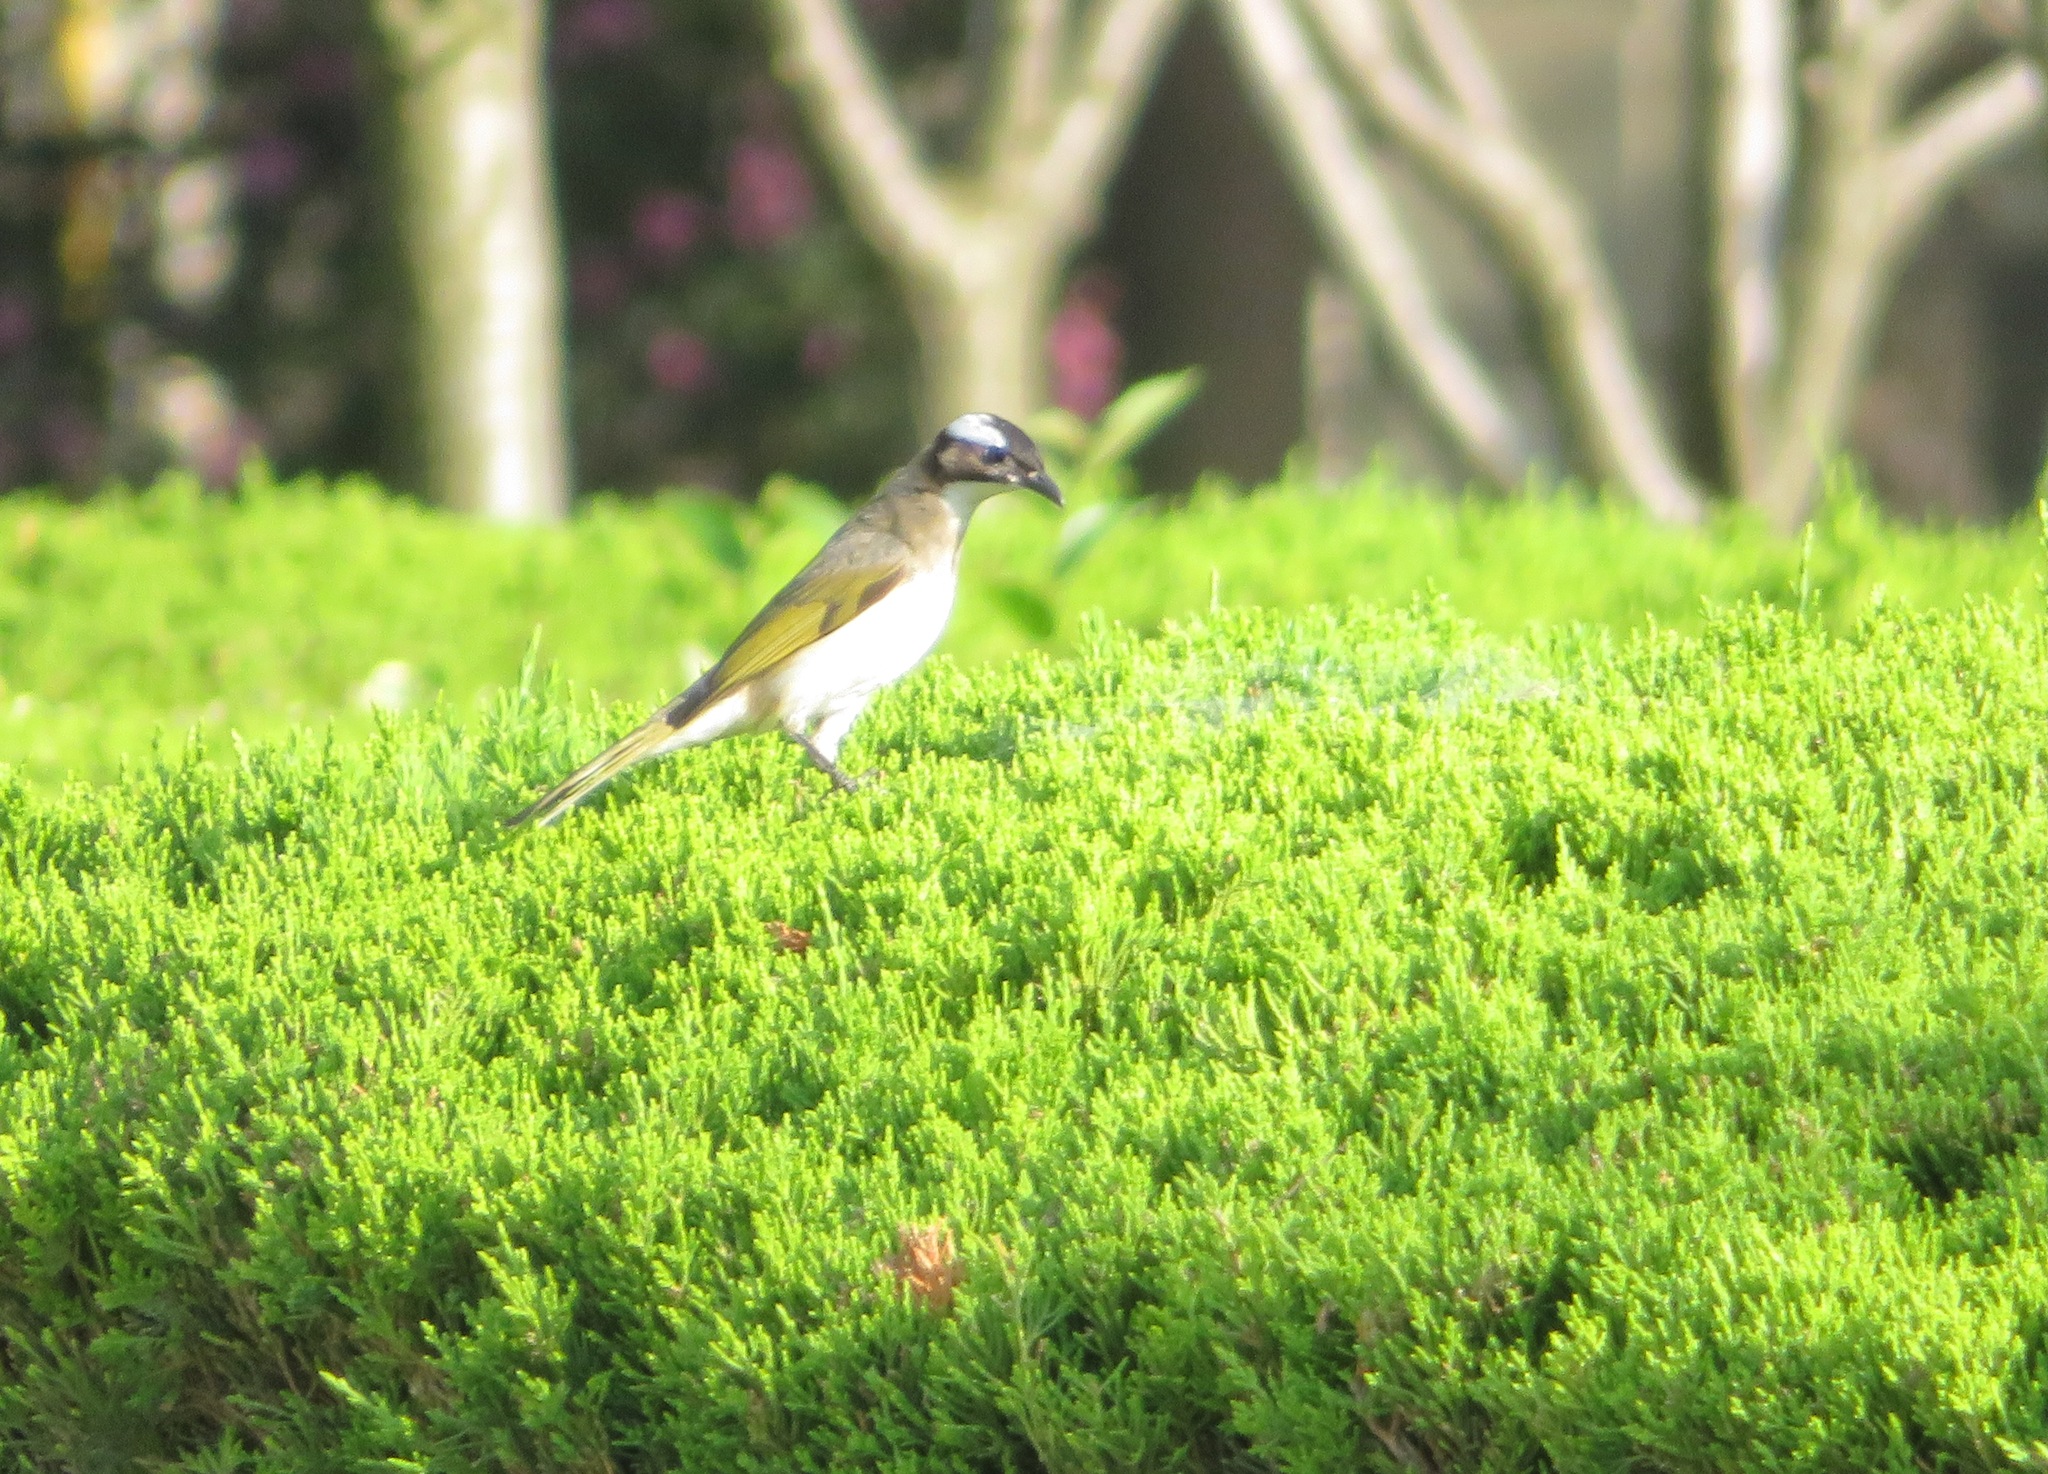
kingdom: Animalia
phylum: Chordata
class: Aves
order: Passeriformes
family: Pycnonotidae
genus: Pycnonotus
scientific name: Pycnonotus sinensis
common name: Light-vented bulbul
